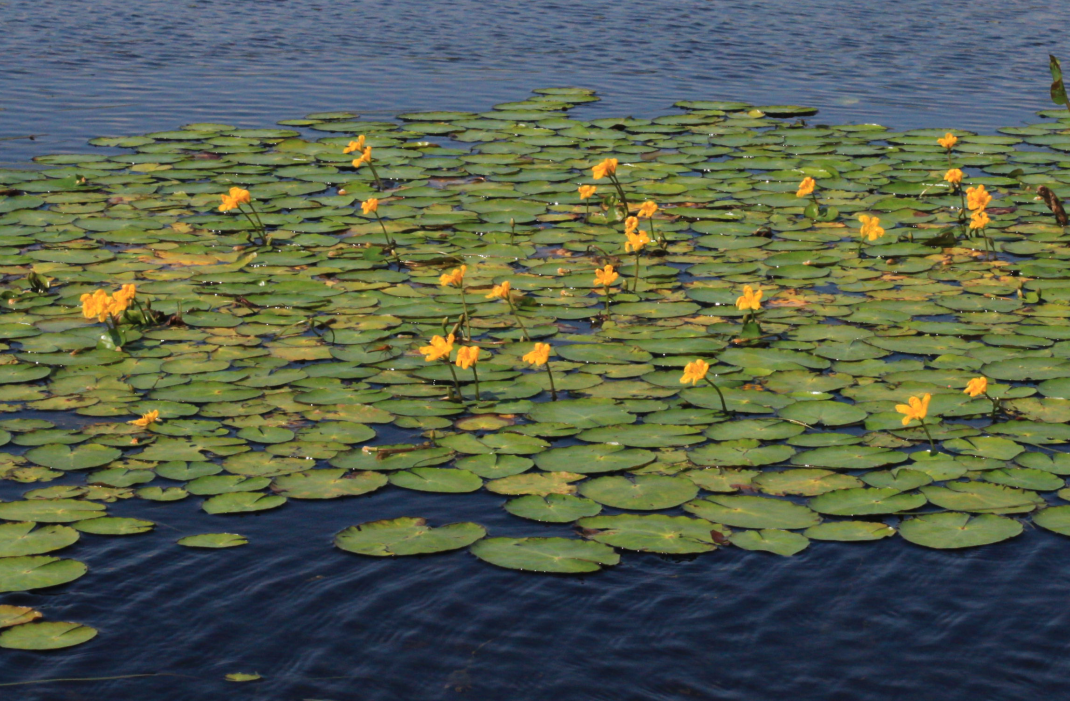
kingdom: Plantae
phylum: Tracheophyta
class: Magnoliopsida
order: Asterales
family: Menyanthaceae
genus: Nymphoides
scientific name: Nymphoides peltata
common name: Fringed water-lily
